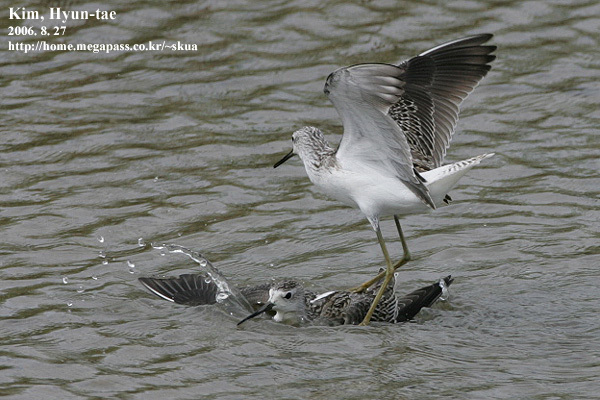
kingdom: Animalia
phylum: Chordata
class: Aves
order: Charadriiformes
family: Scolopacidae
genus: Tringa
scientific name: Tringa stagnatilis
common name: Marsh sandpiper
